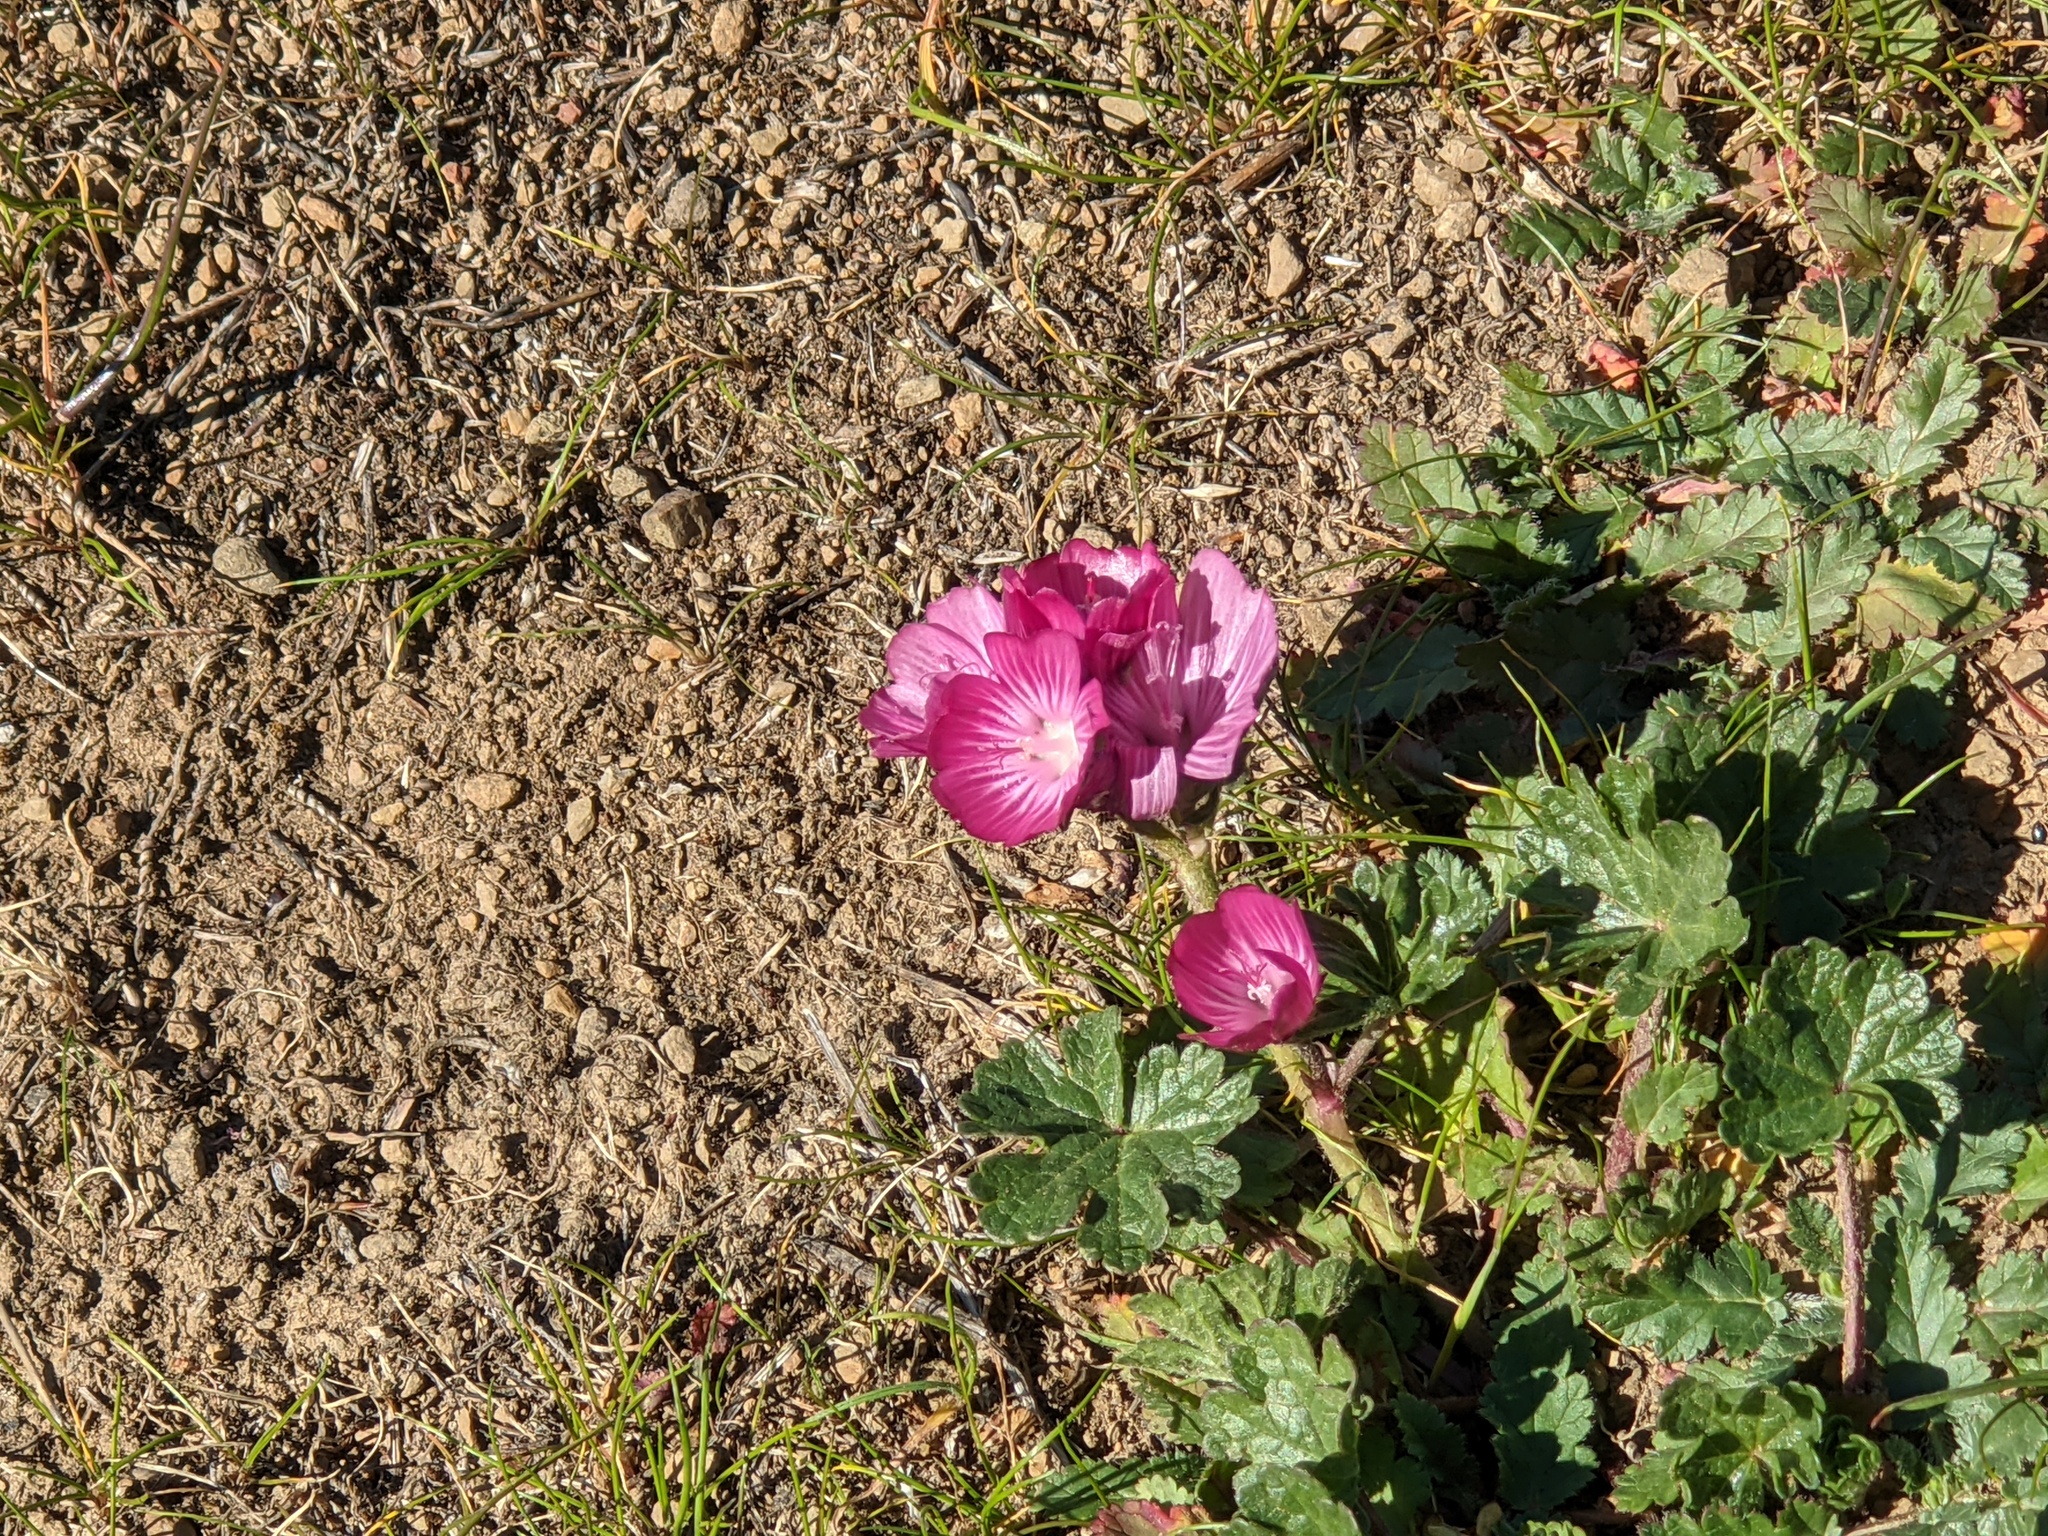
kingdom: Plantae
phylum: Tracheophyta
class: Magnoliopsida
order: Malvales
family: Malvaceae
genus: Sidalcea
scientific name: Sidalcea malviflora
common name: Greek mallow
